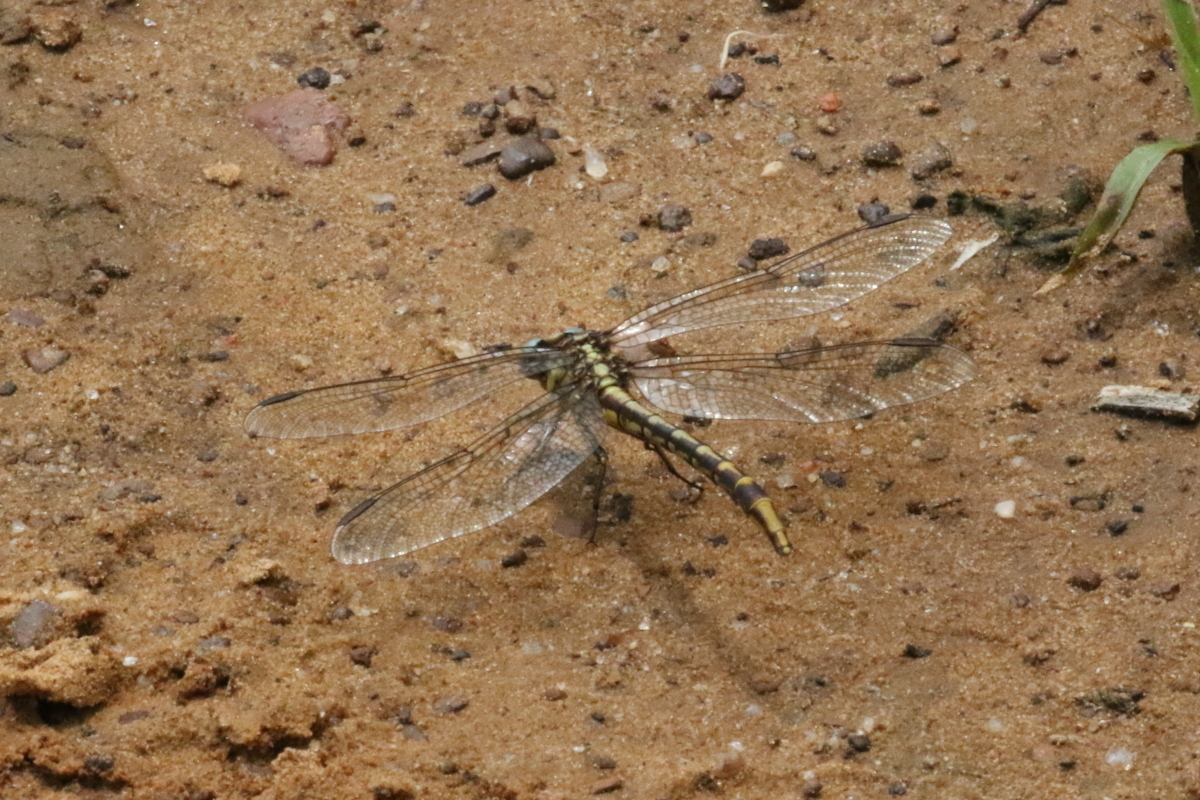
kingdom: Animalia
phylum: Arthropoda
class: Insecta
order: Odonata
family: Gomphidae
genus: Phanogomphus
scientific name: Phanogomphus militaris
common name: Sulphur-tipped clubtail
